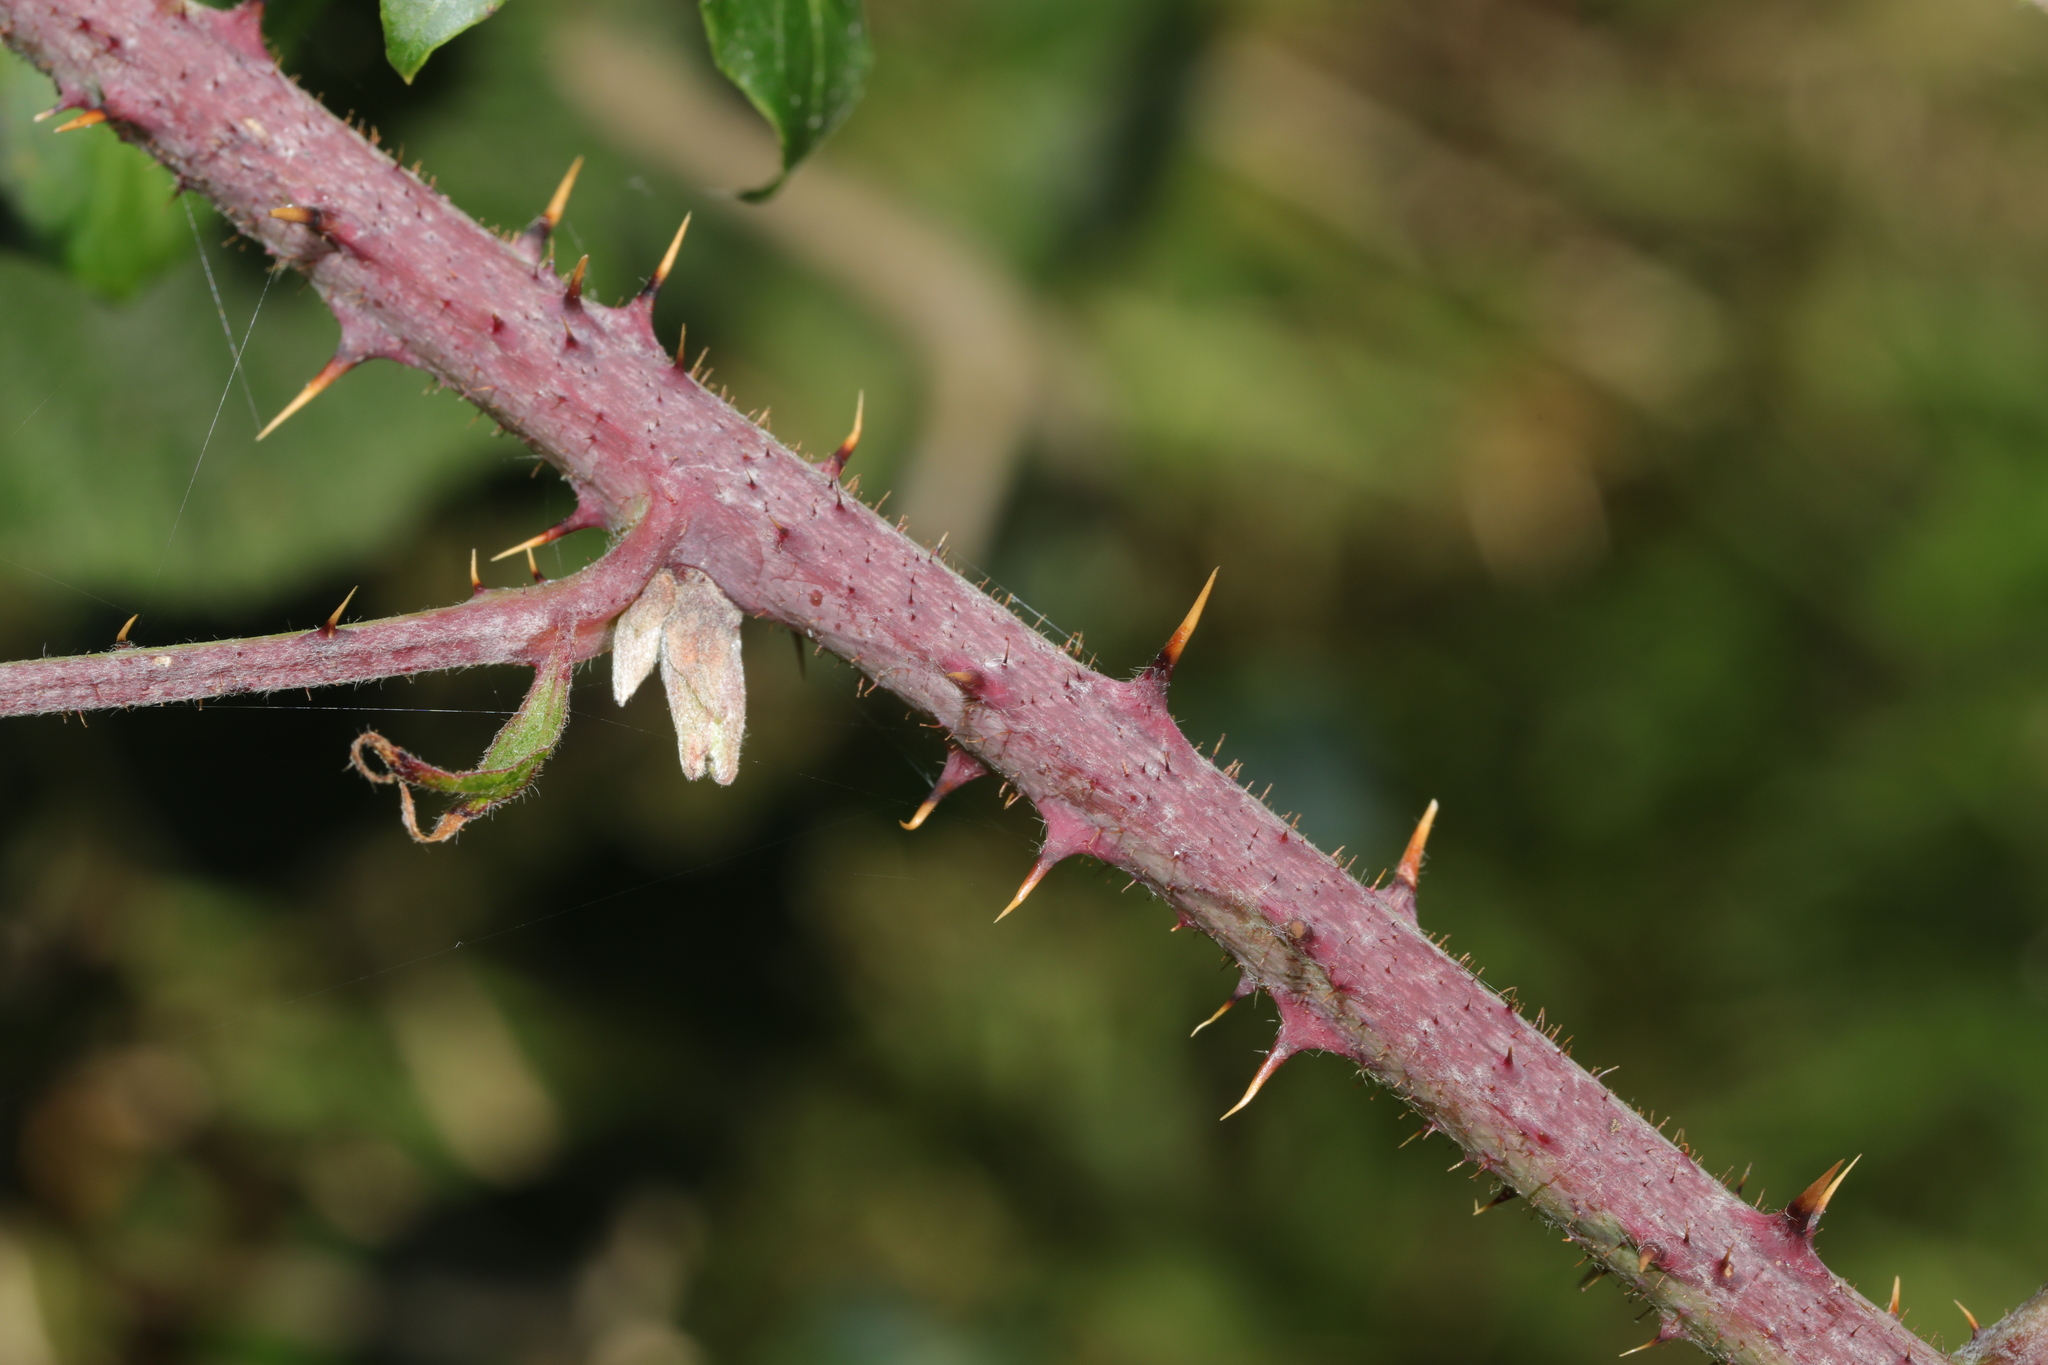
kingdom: Plantae
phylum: Tracheophyta
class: Magnoliopsida
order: Rosales
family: Rosaceae
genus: Rubus
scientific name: Rubus horrefactus
